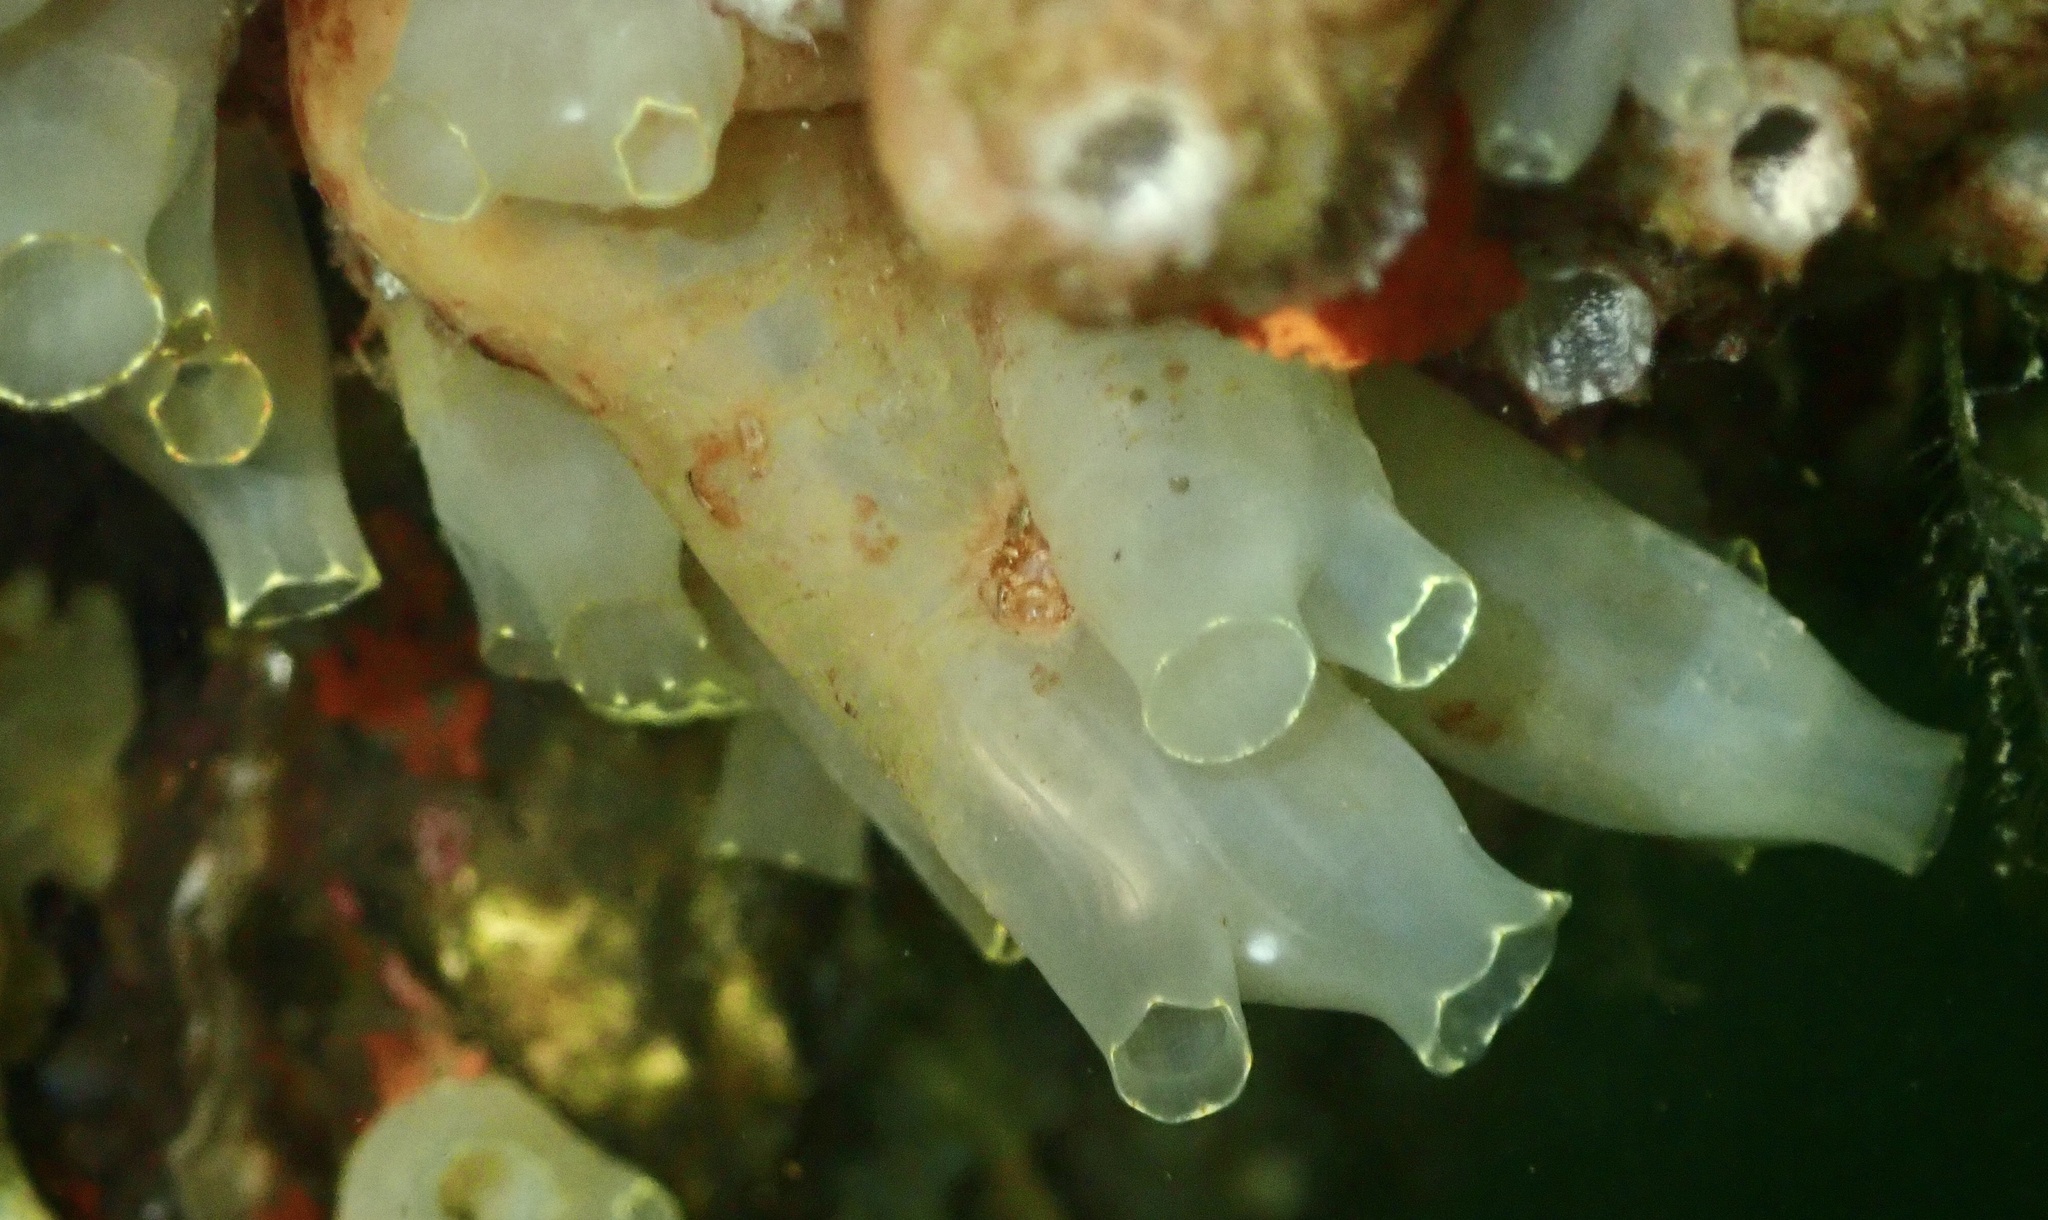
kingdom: Animalia
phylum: Chordata
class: Ascidiacea
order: Phlebobranchia
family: Cionidae
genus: Ciona
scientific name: Ciona intestinalis
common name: Vase tunicate
